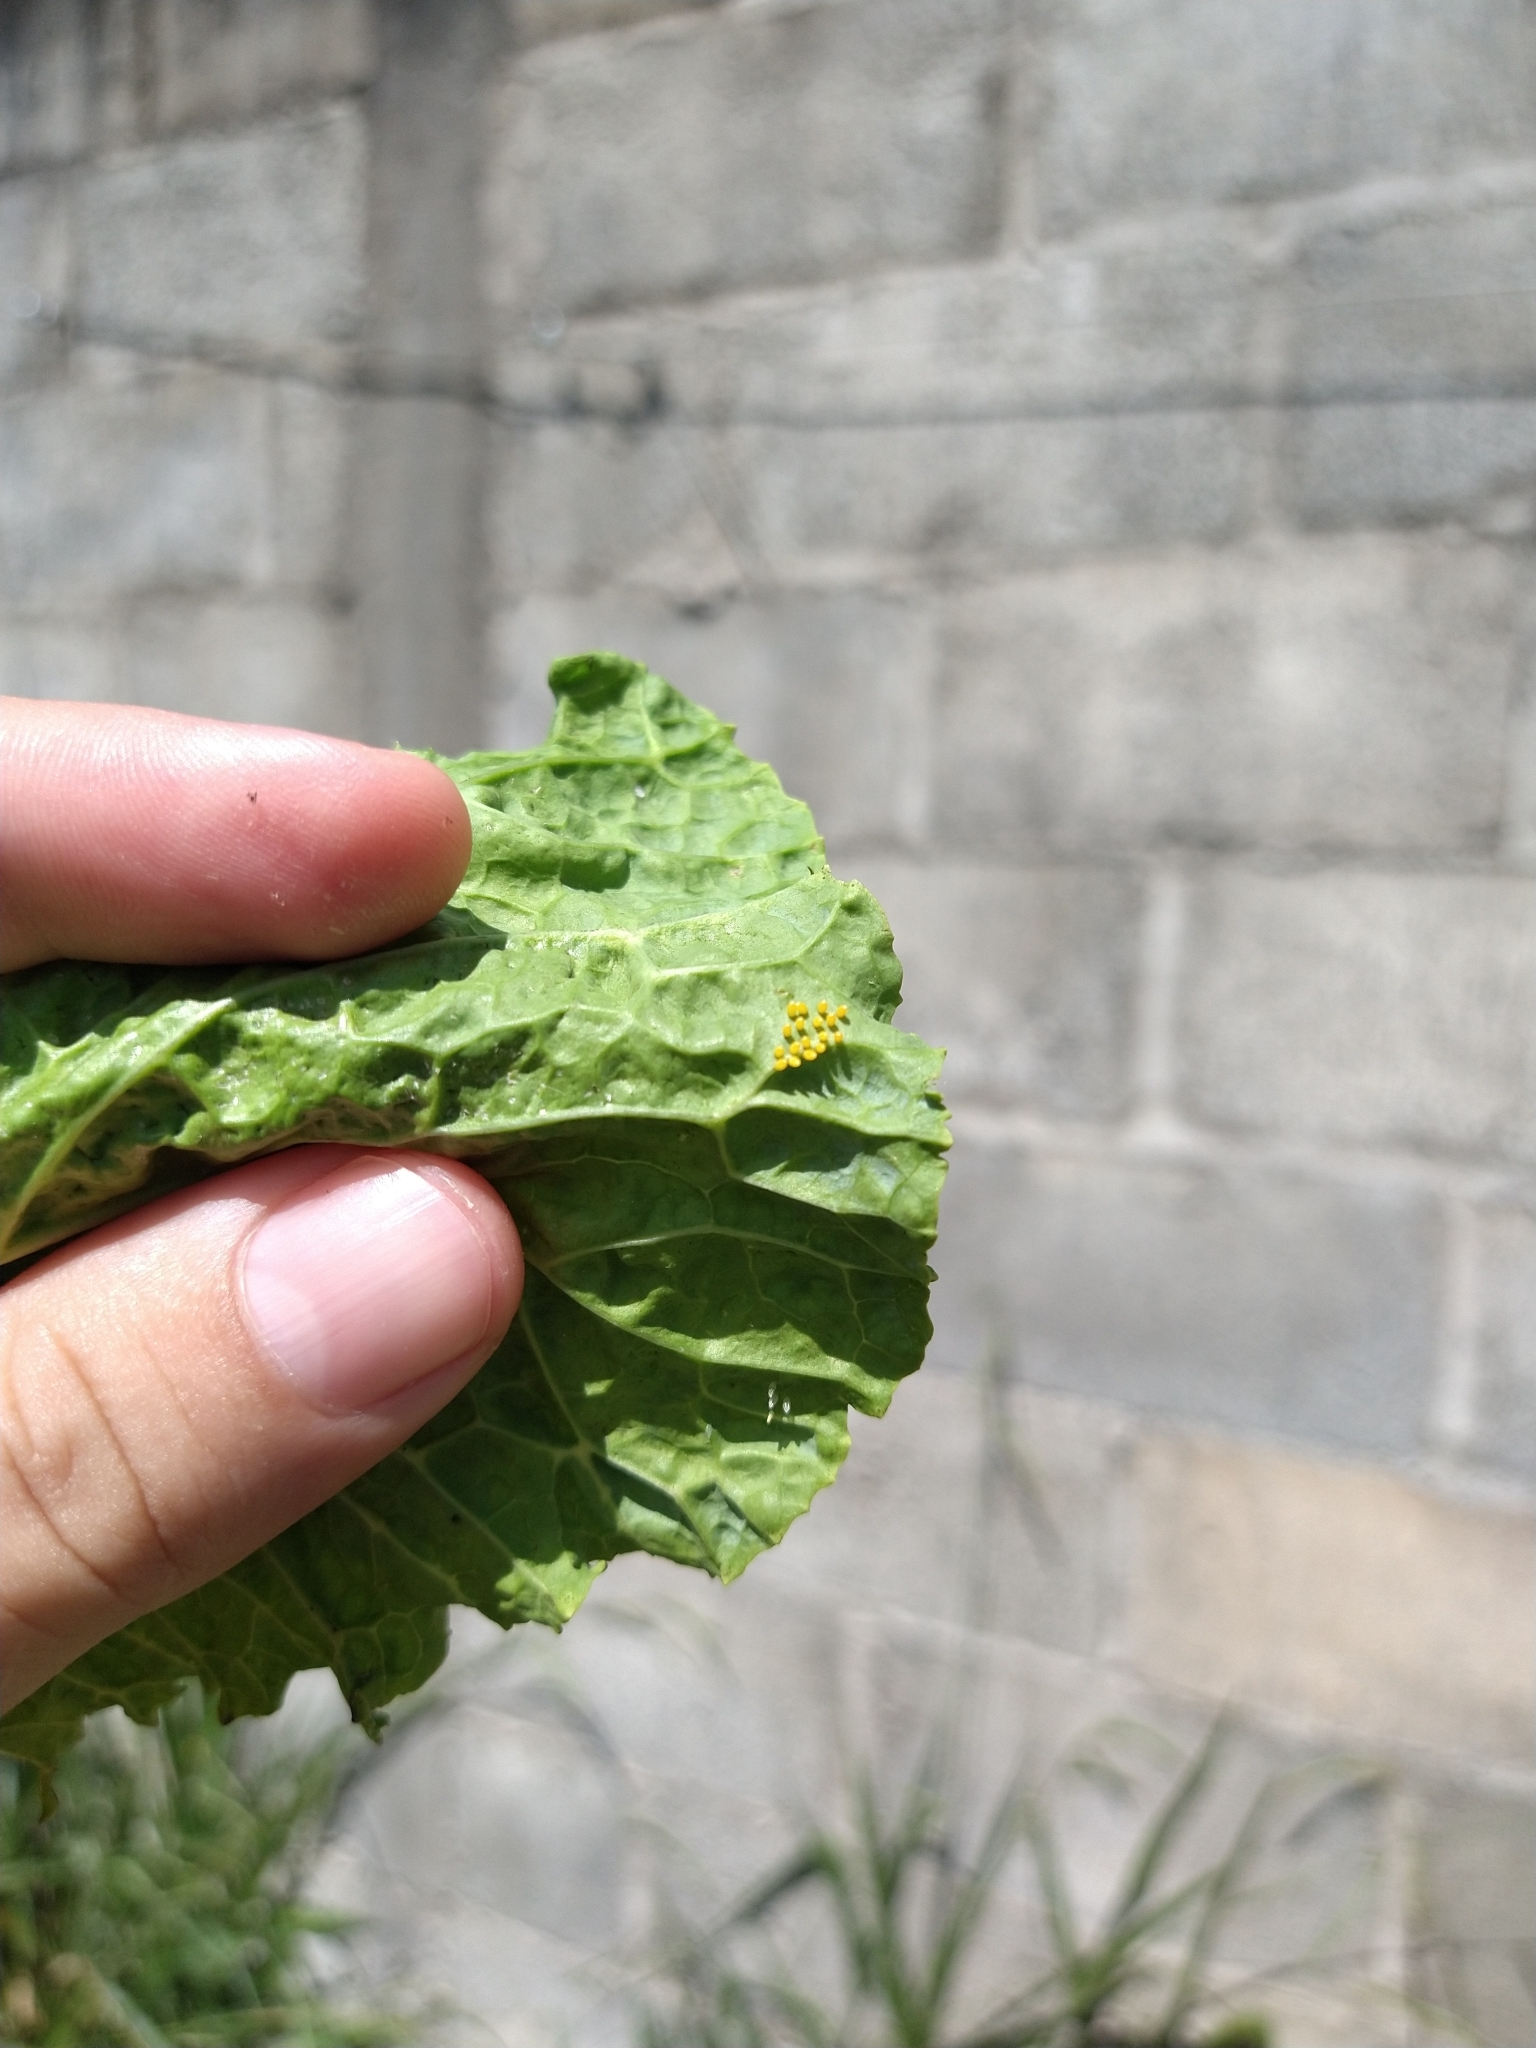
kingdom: Animalia
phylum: Arthropoda
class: Insecta
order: Lepidoptera
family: Pieridae
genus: Ascia
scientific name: Ascia monuste
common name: Great southern white
